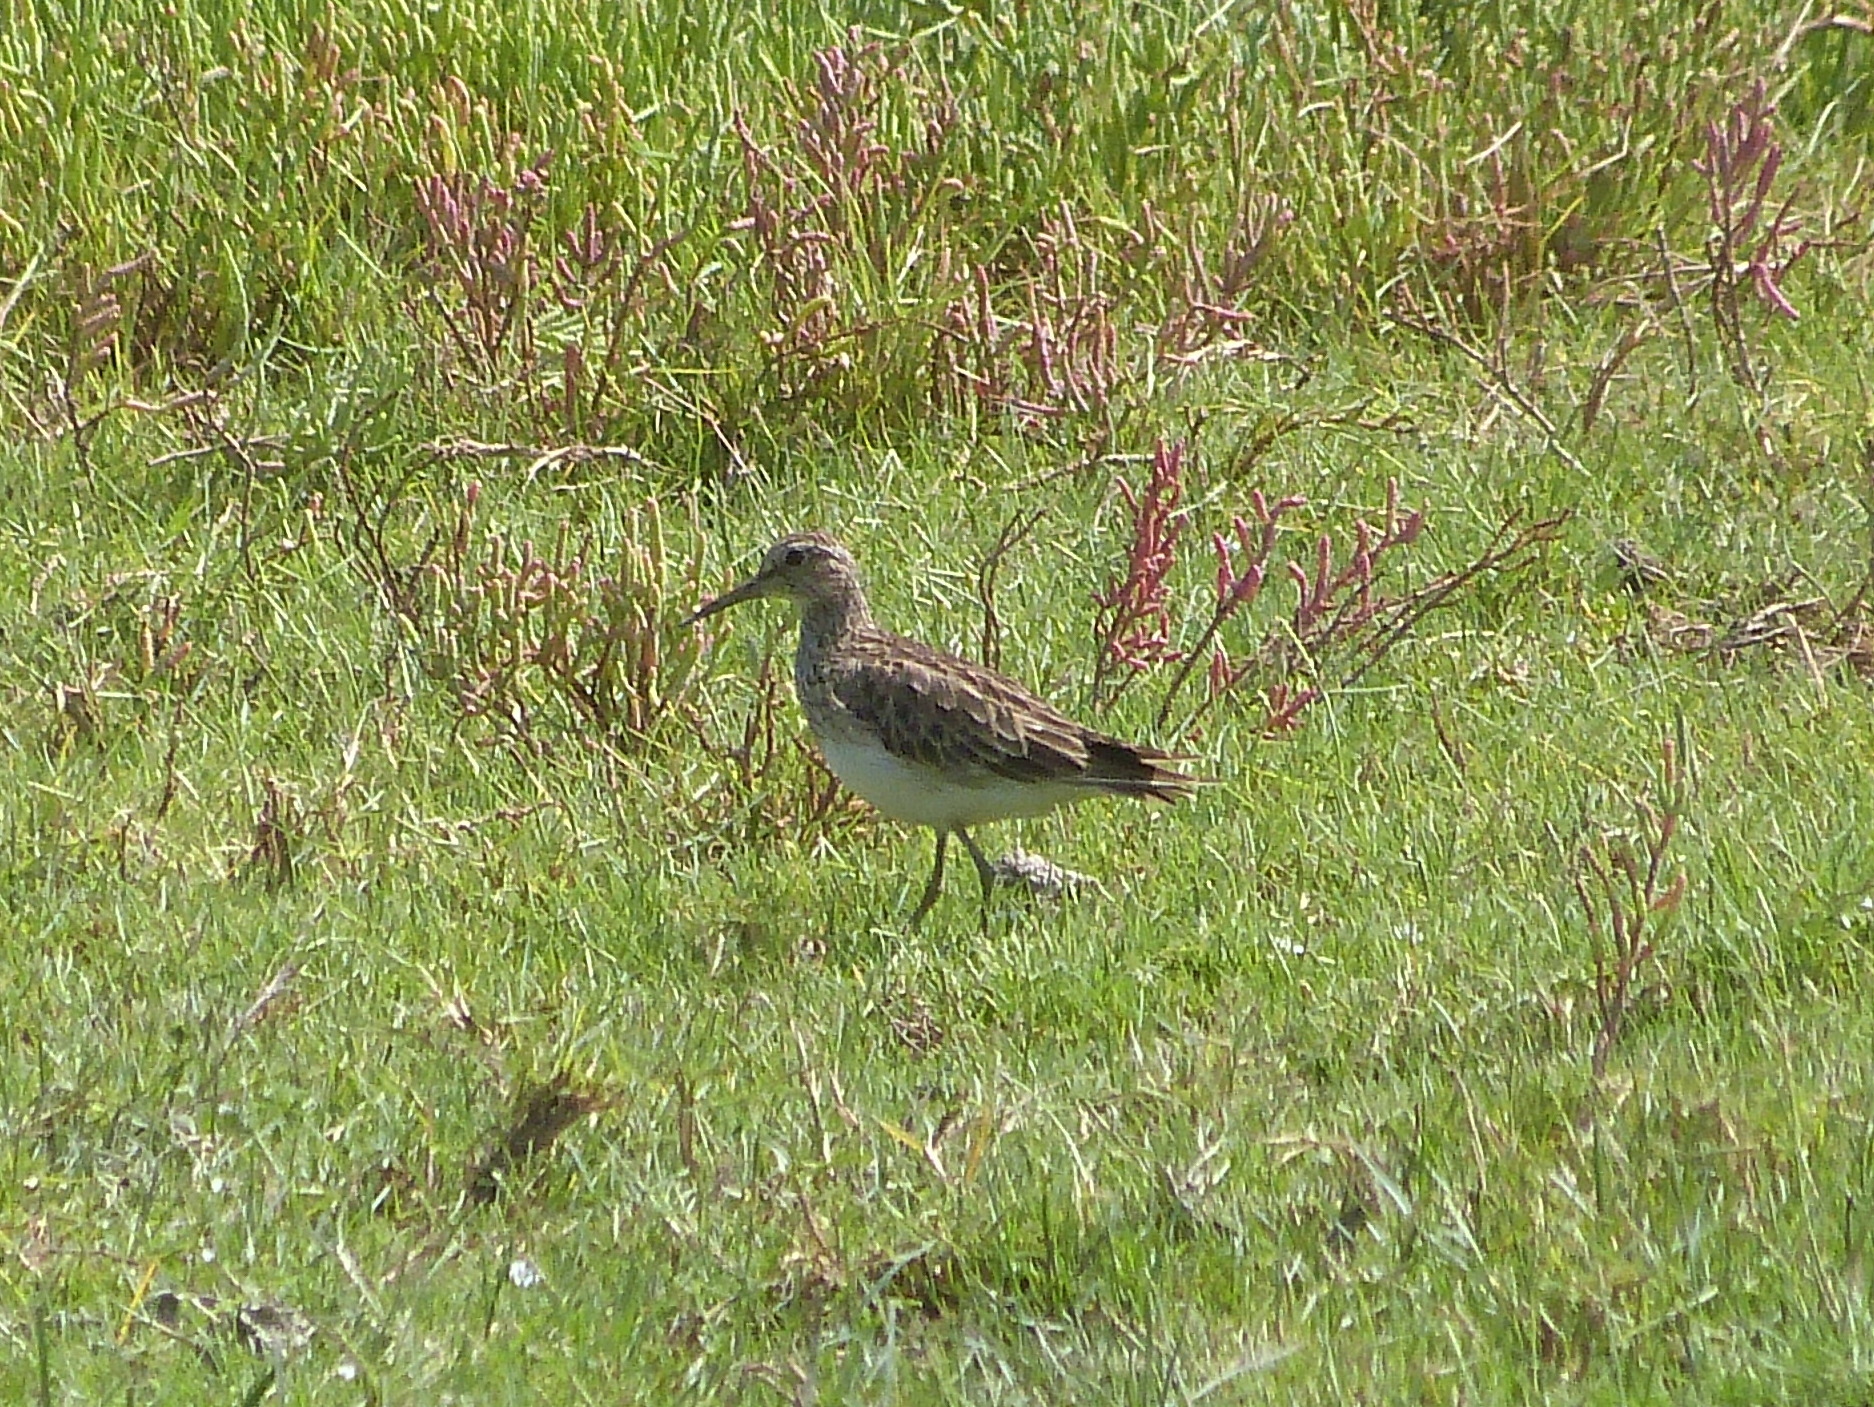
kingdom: Animalia
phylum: Chordata
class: Aves
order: Charadriiformes
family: Scolopacidae
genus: Calidris
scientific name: Calidris melanotos
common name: Pectoral sandpiper
